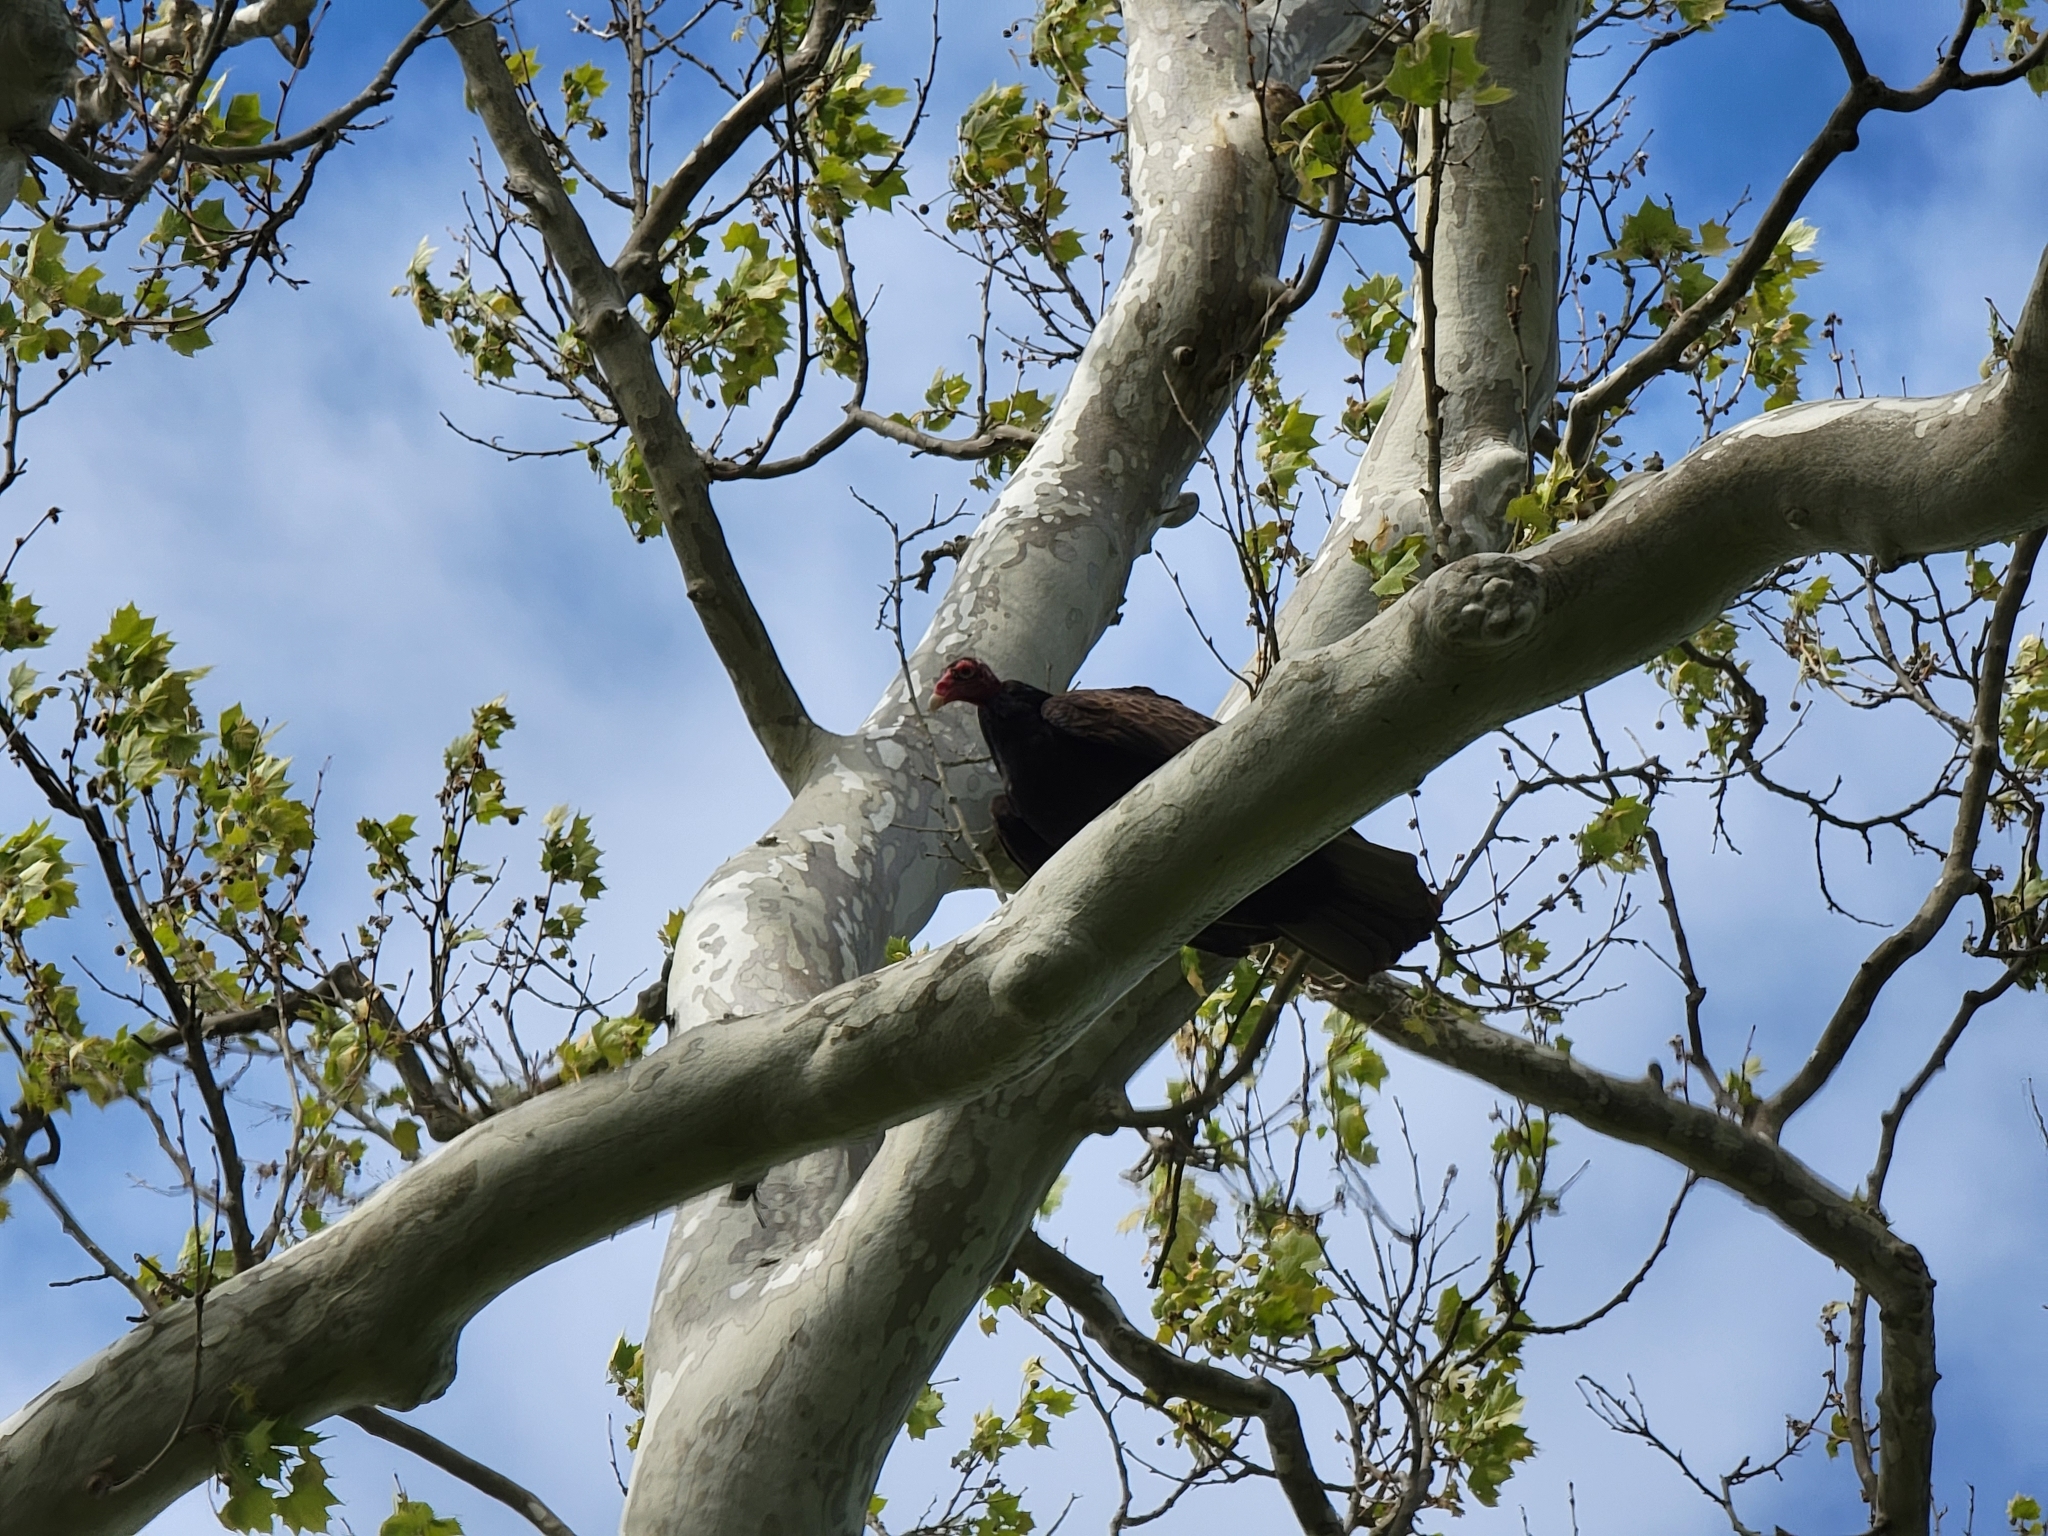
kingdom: Animalia
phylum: Chordata
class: Aves
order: Accipitriformes
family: Cathartidae
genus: Cathartes
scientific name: Cathartes aura
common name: Turkey vulture
